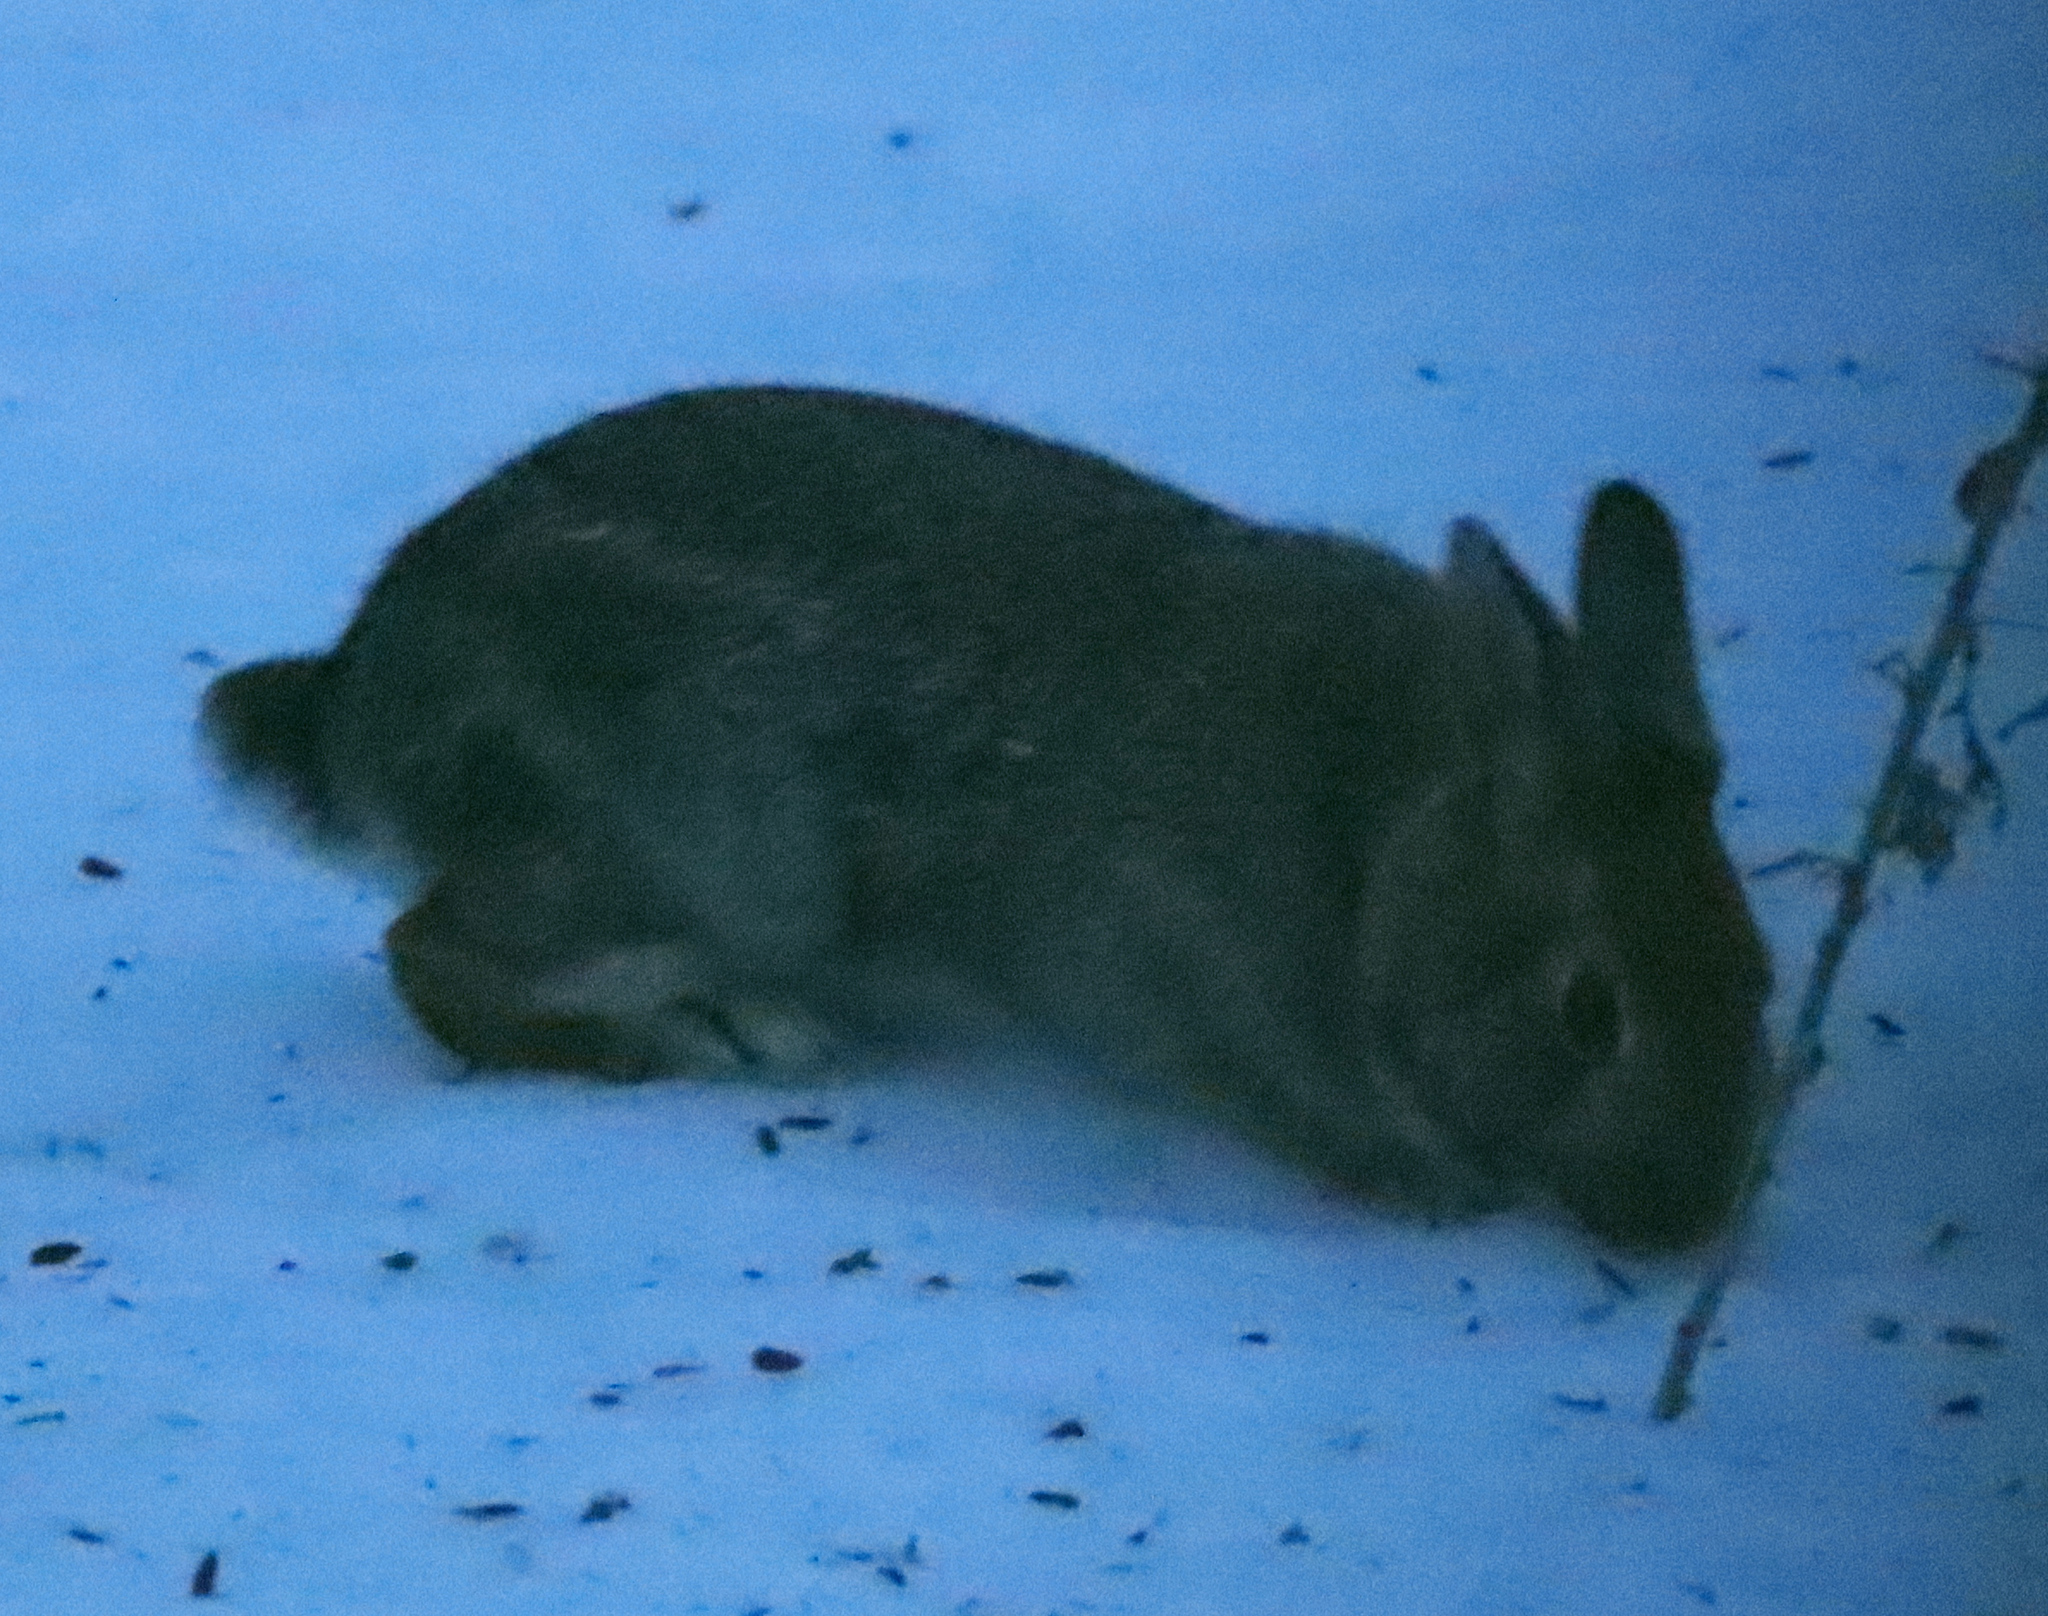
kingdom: Animalia
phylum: Chordata
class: Mammalia
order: Lagomorpha
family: Leporidae
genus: Sylvilagus
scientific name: Sylvilagus floridanus
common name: Eastern cottontail
